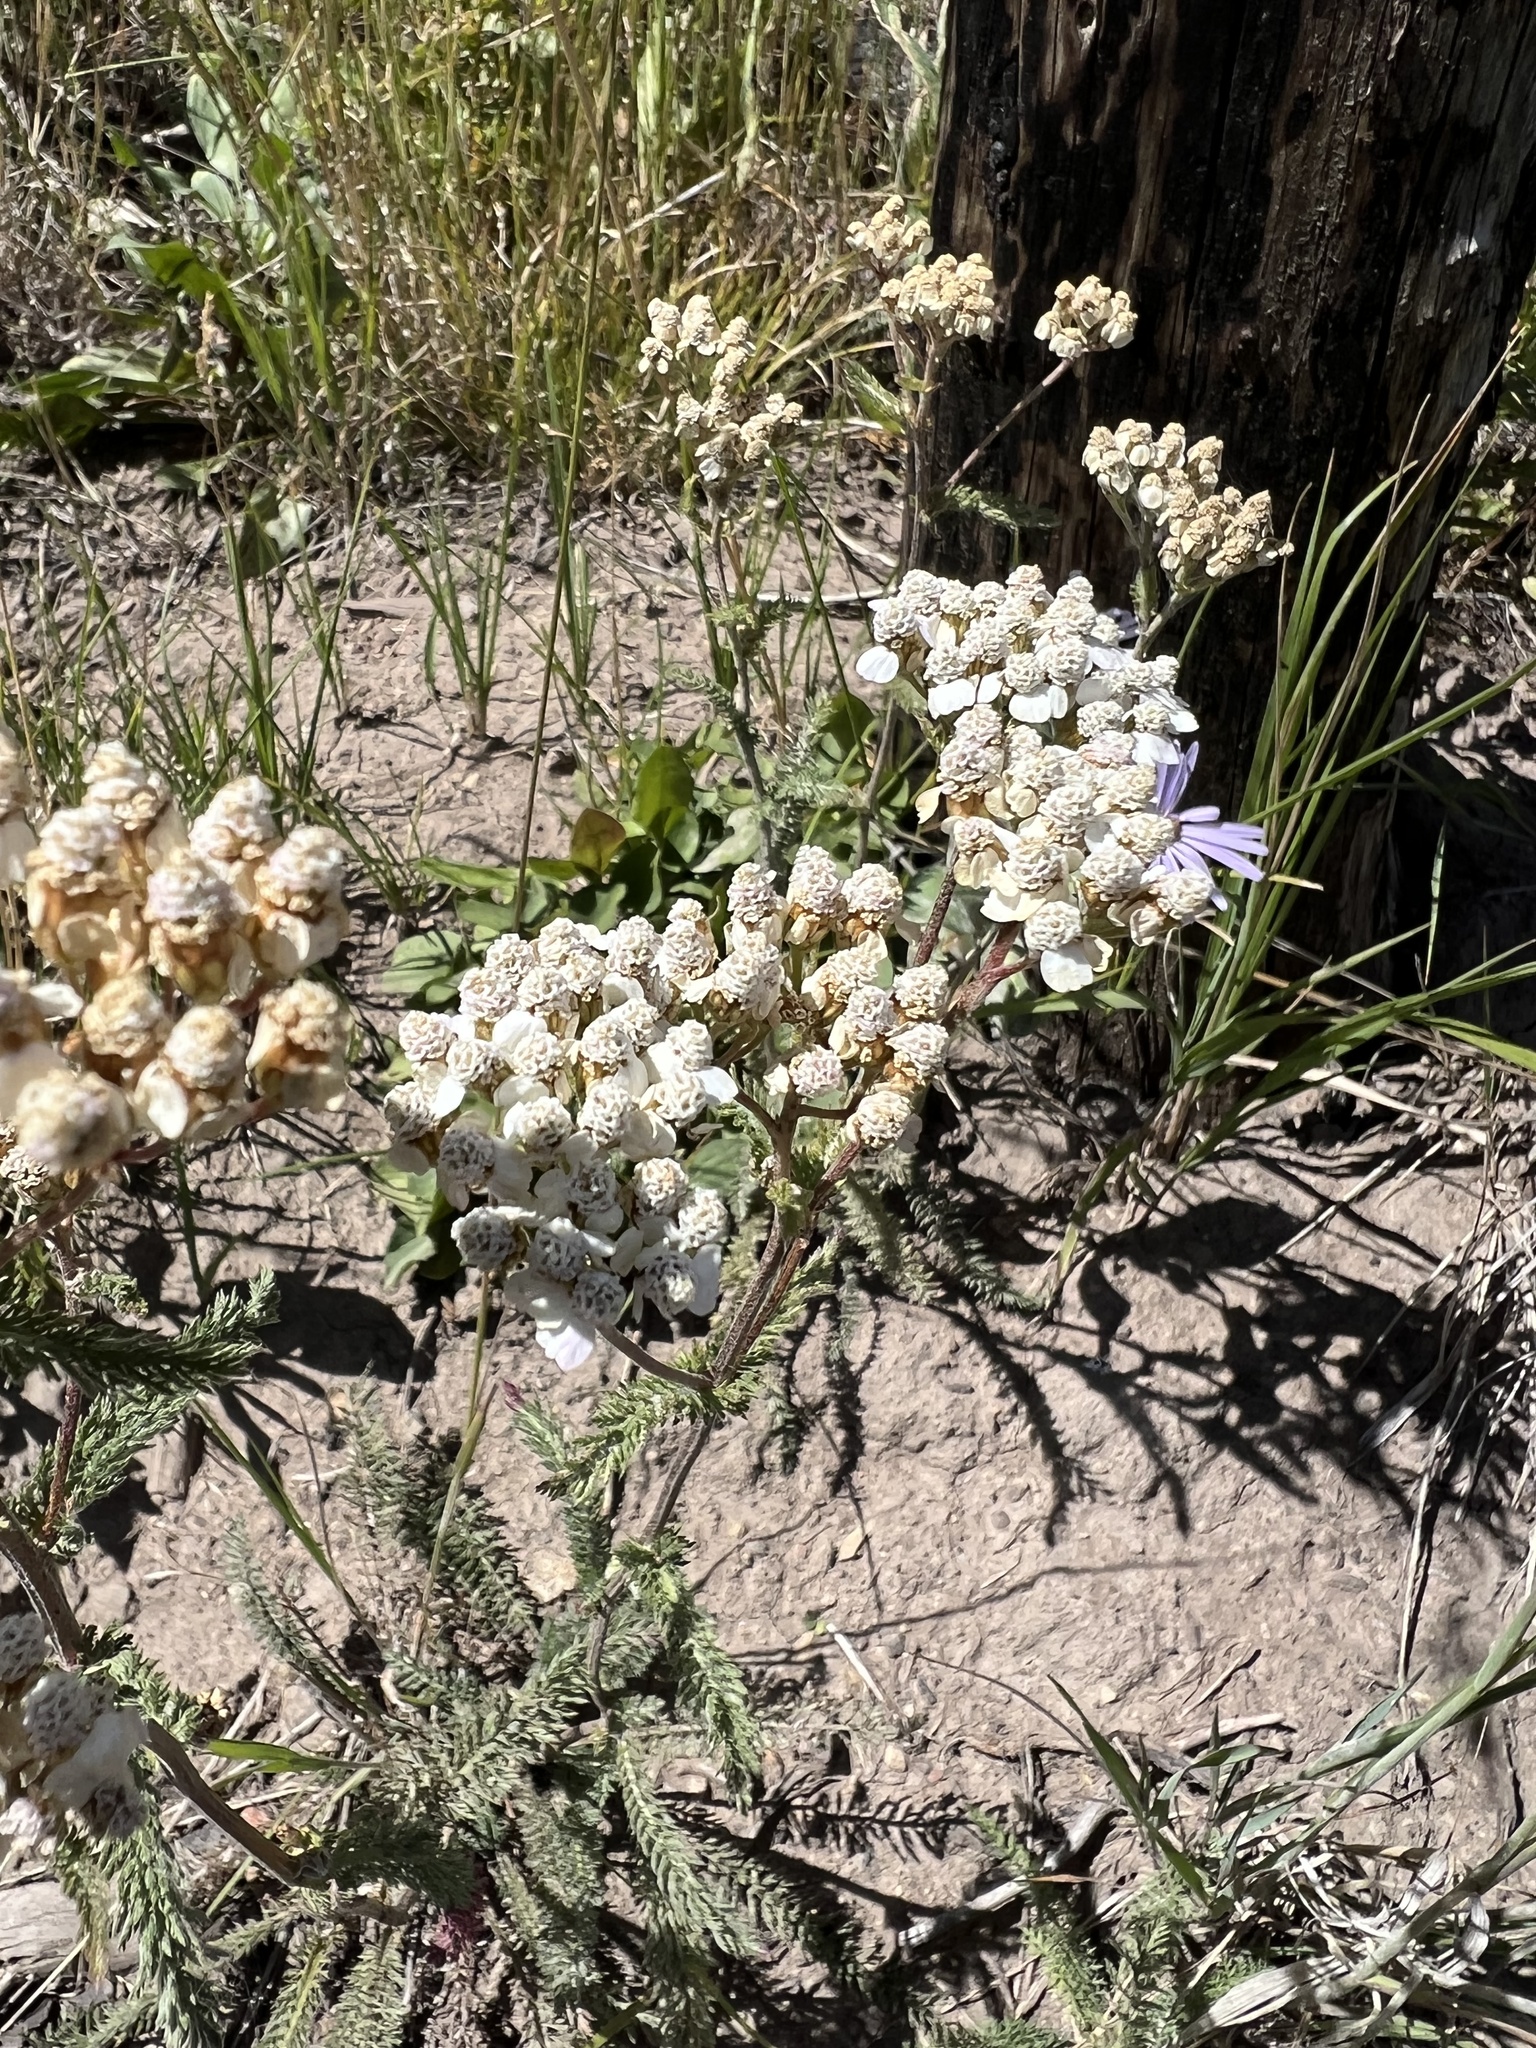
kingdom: Plantae
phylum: Tracheophyta
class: Magnoliopsida
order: Asterales
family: Asteraceae
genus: Achillea
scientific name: Achillea millefolium
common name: Yarrow
